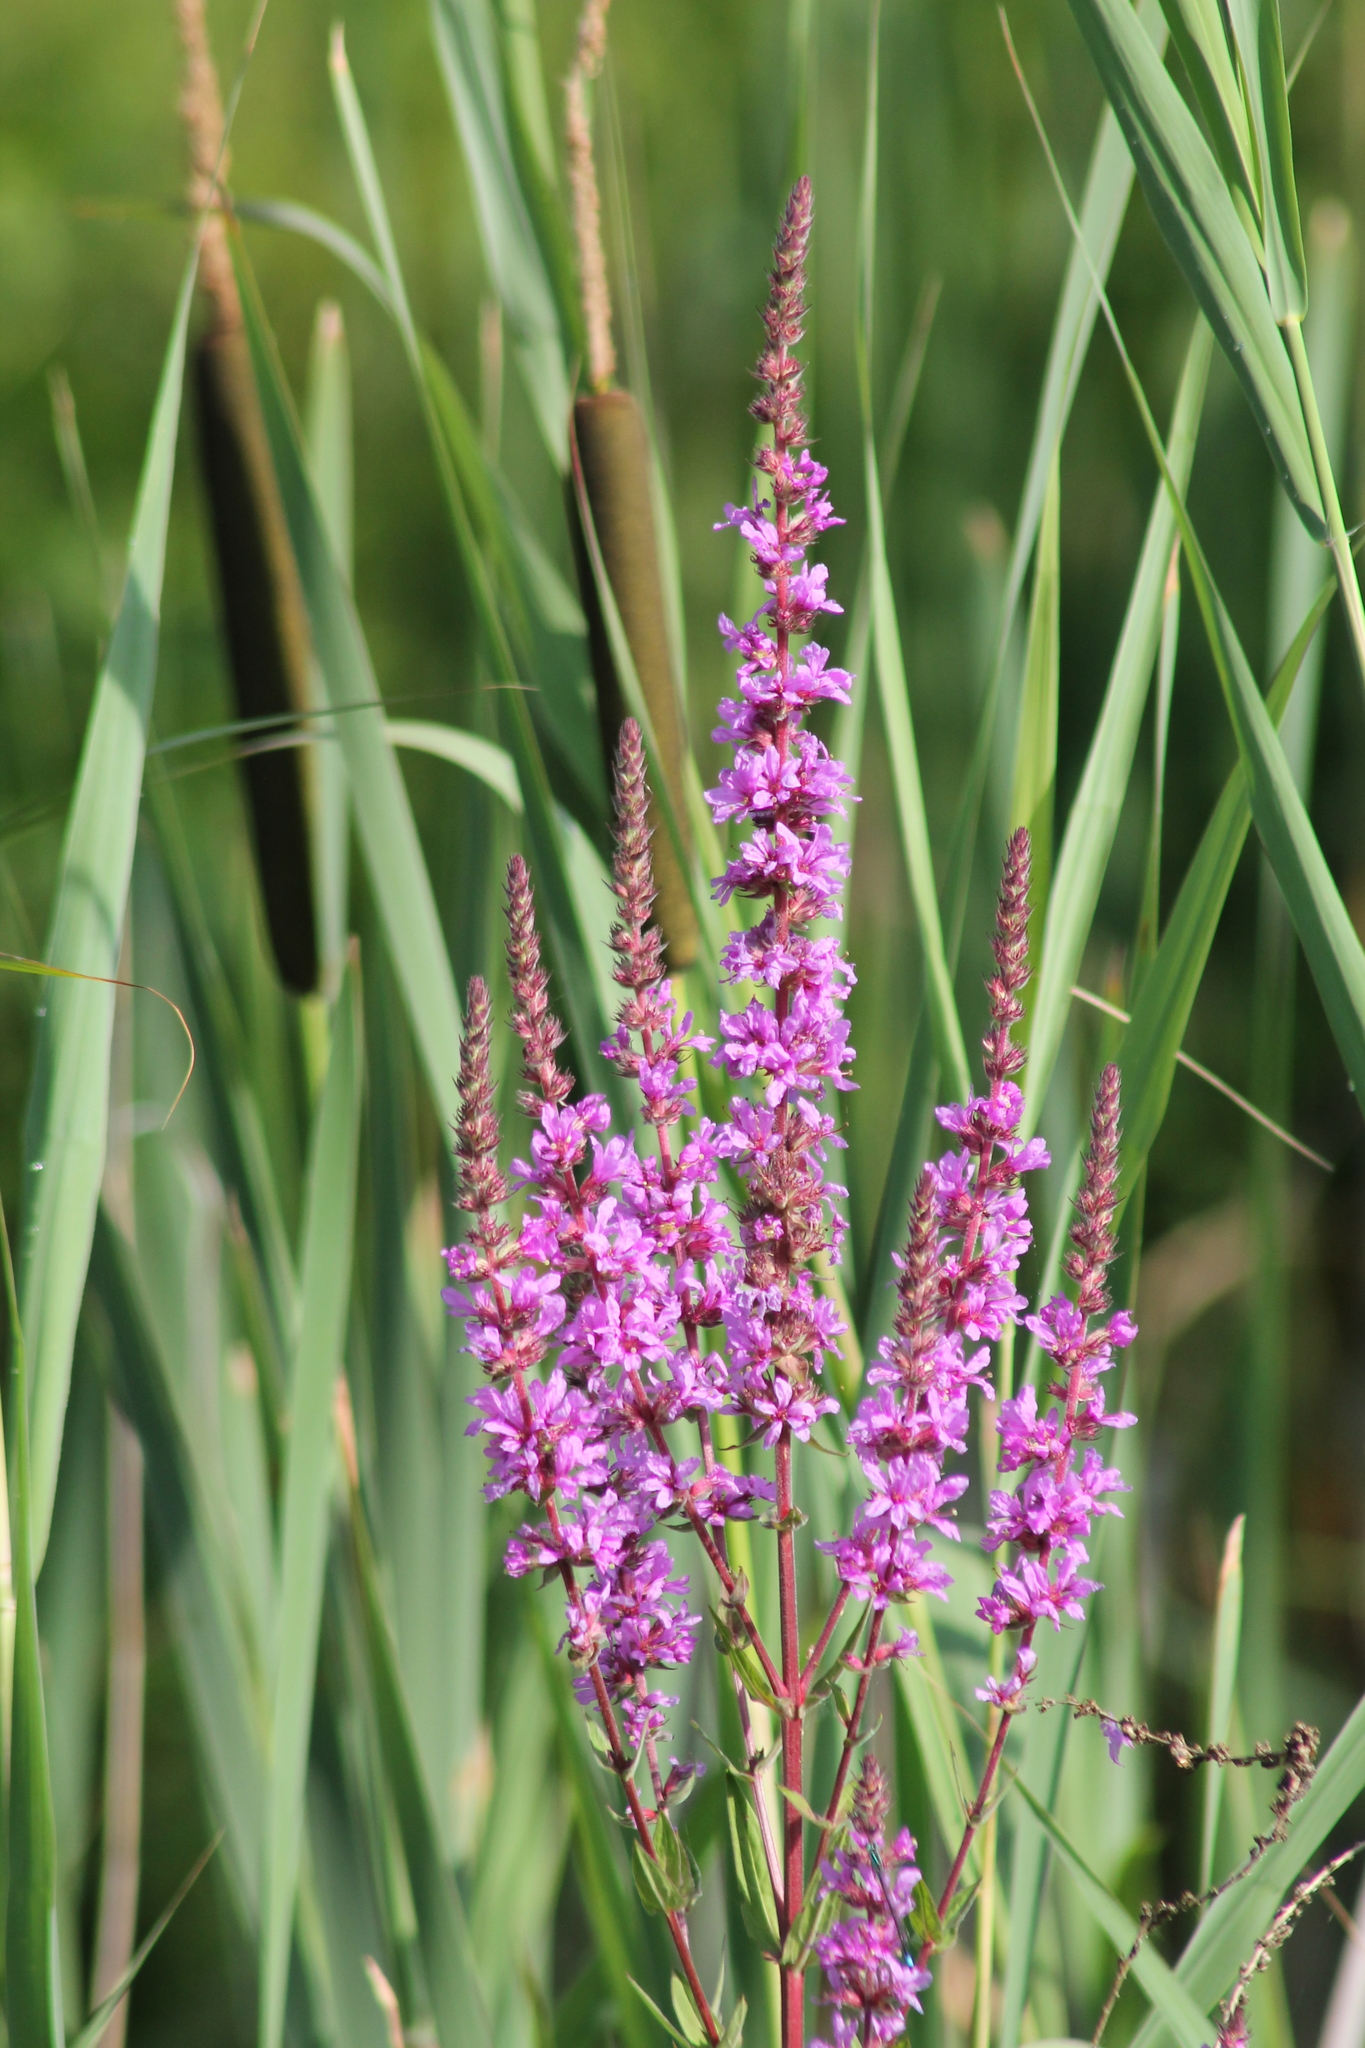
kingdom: Plantae
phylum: Tracheophyta
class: Magnoliopsida
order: Myrtales
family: Lythraceae
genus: Lythrum
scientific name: Lythrum salicaria
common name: Purple loosestrife
